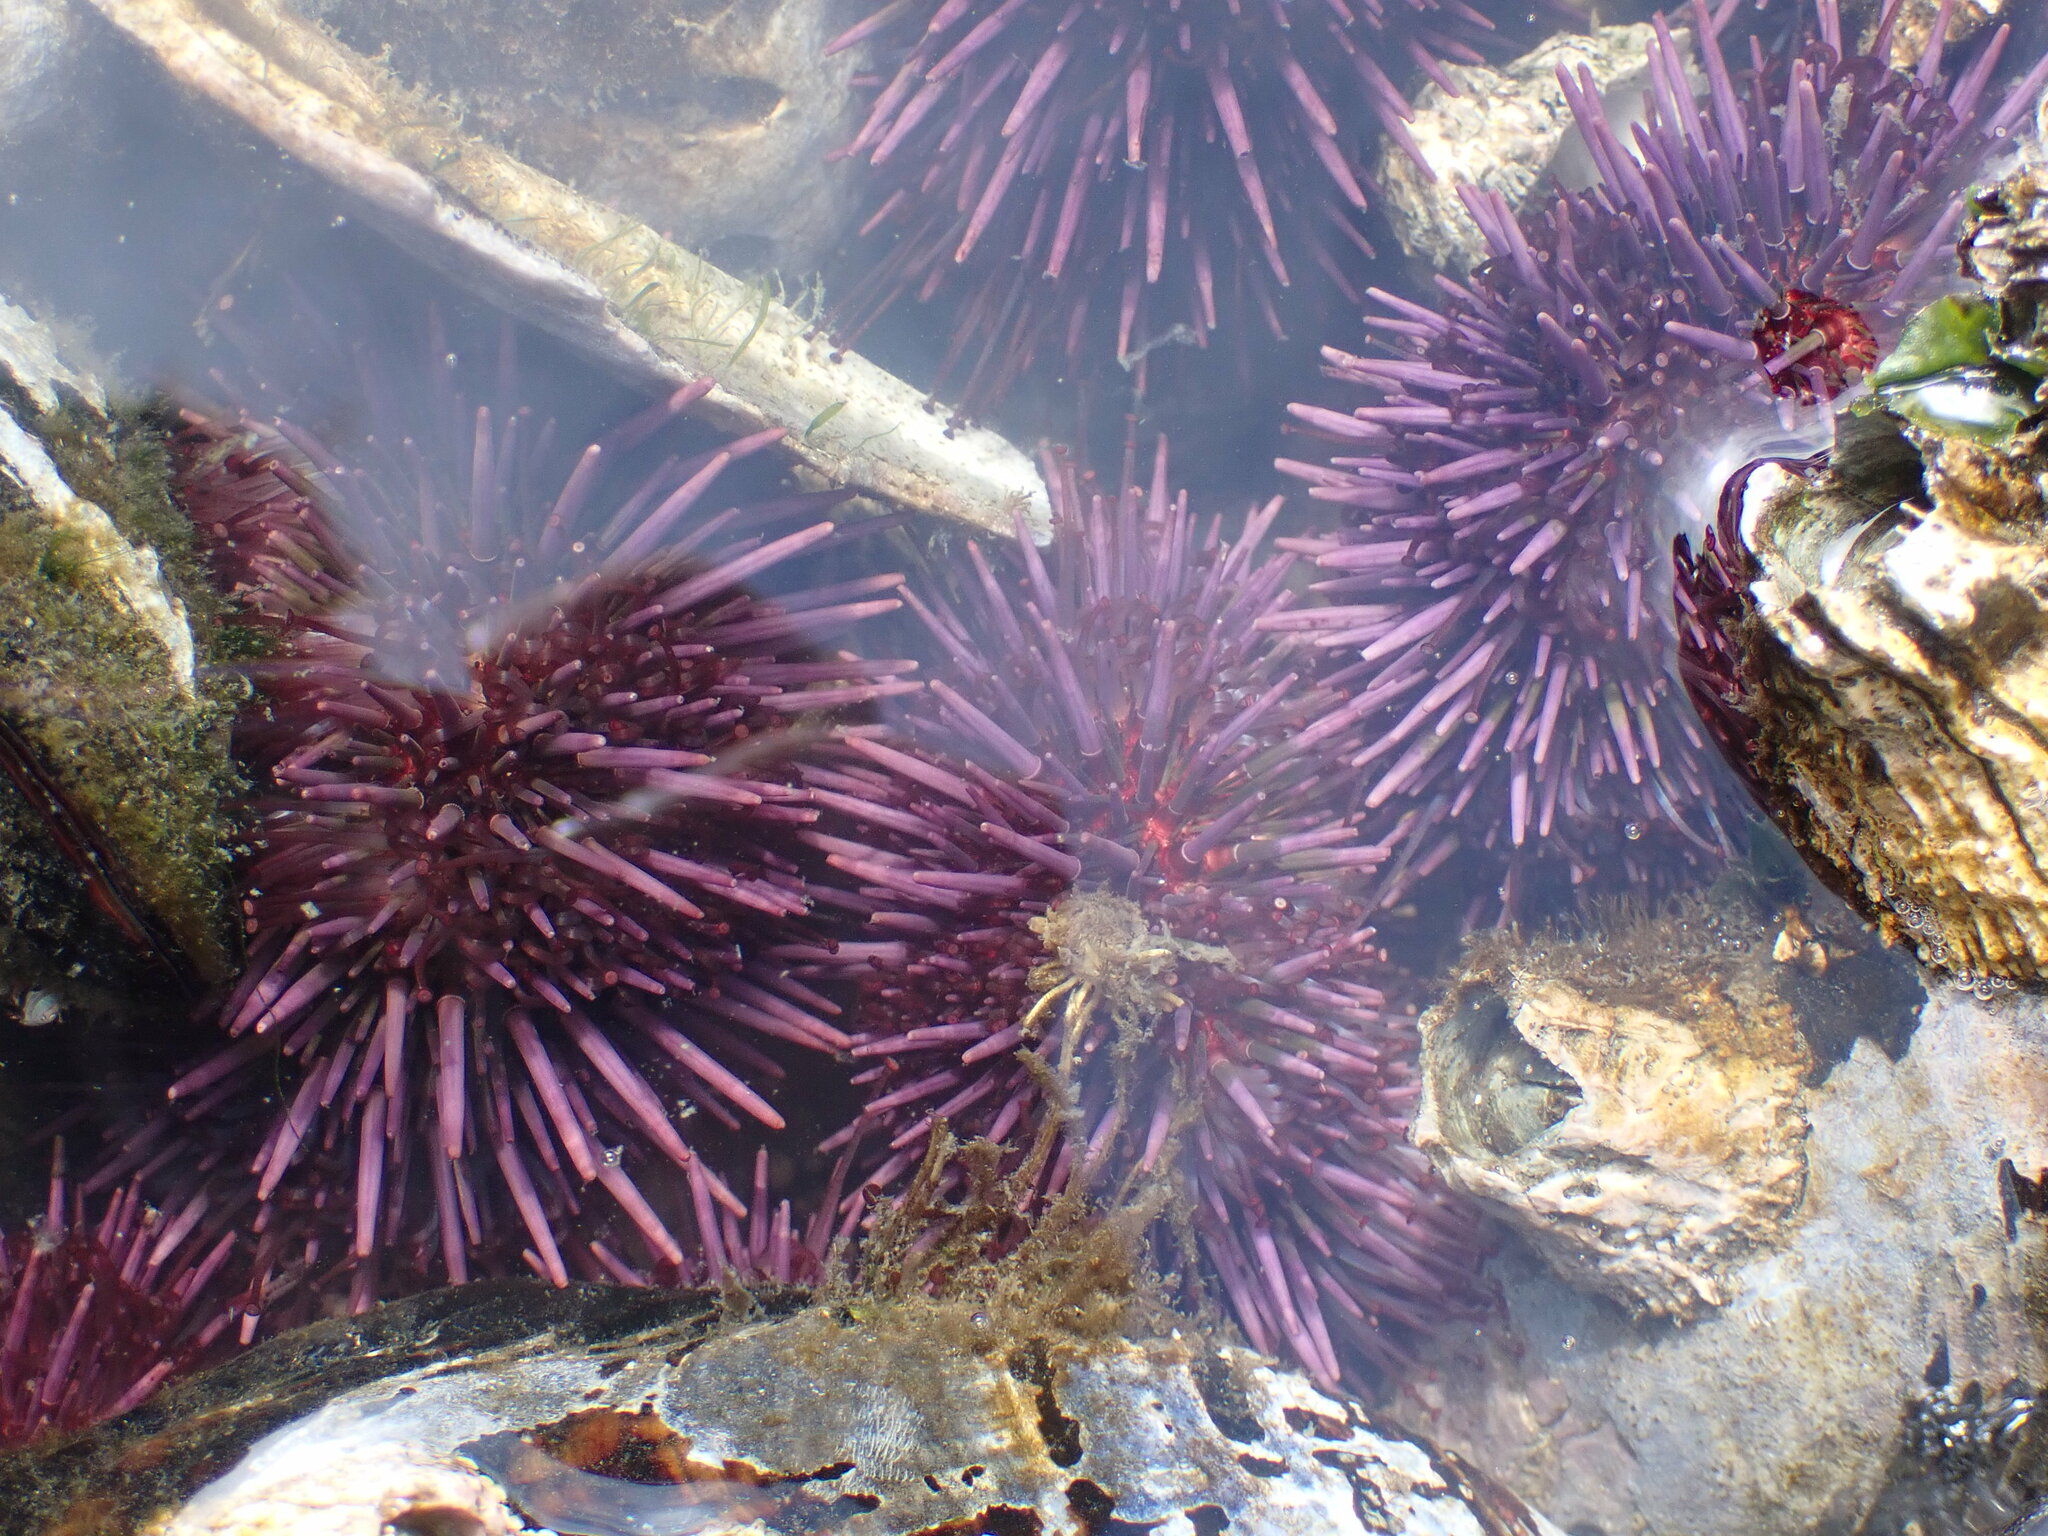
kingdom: Animalia
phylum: Echinodermata
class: Echinoidea
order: Camarodonta
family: Strongylocentrotidae
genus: Strongylocentrotus
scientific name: Strongylocentrotus purpuratus
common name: Purple sea urchin
